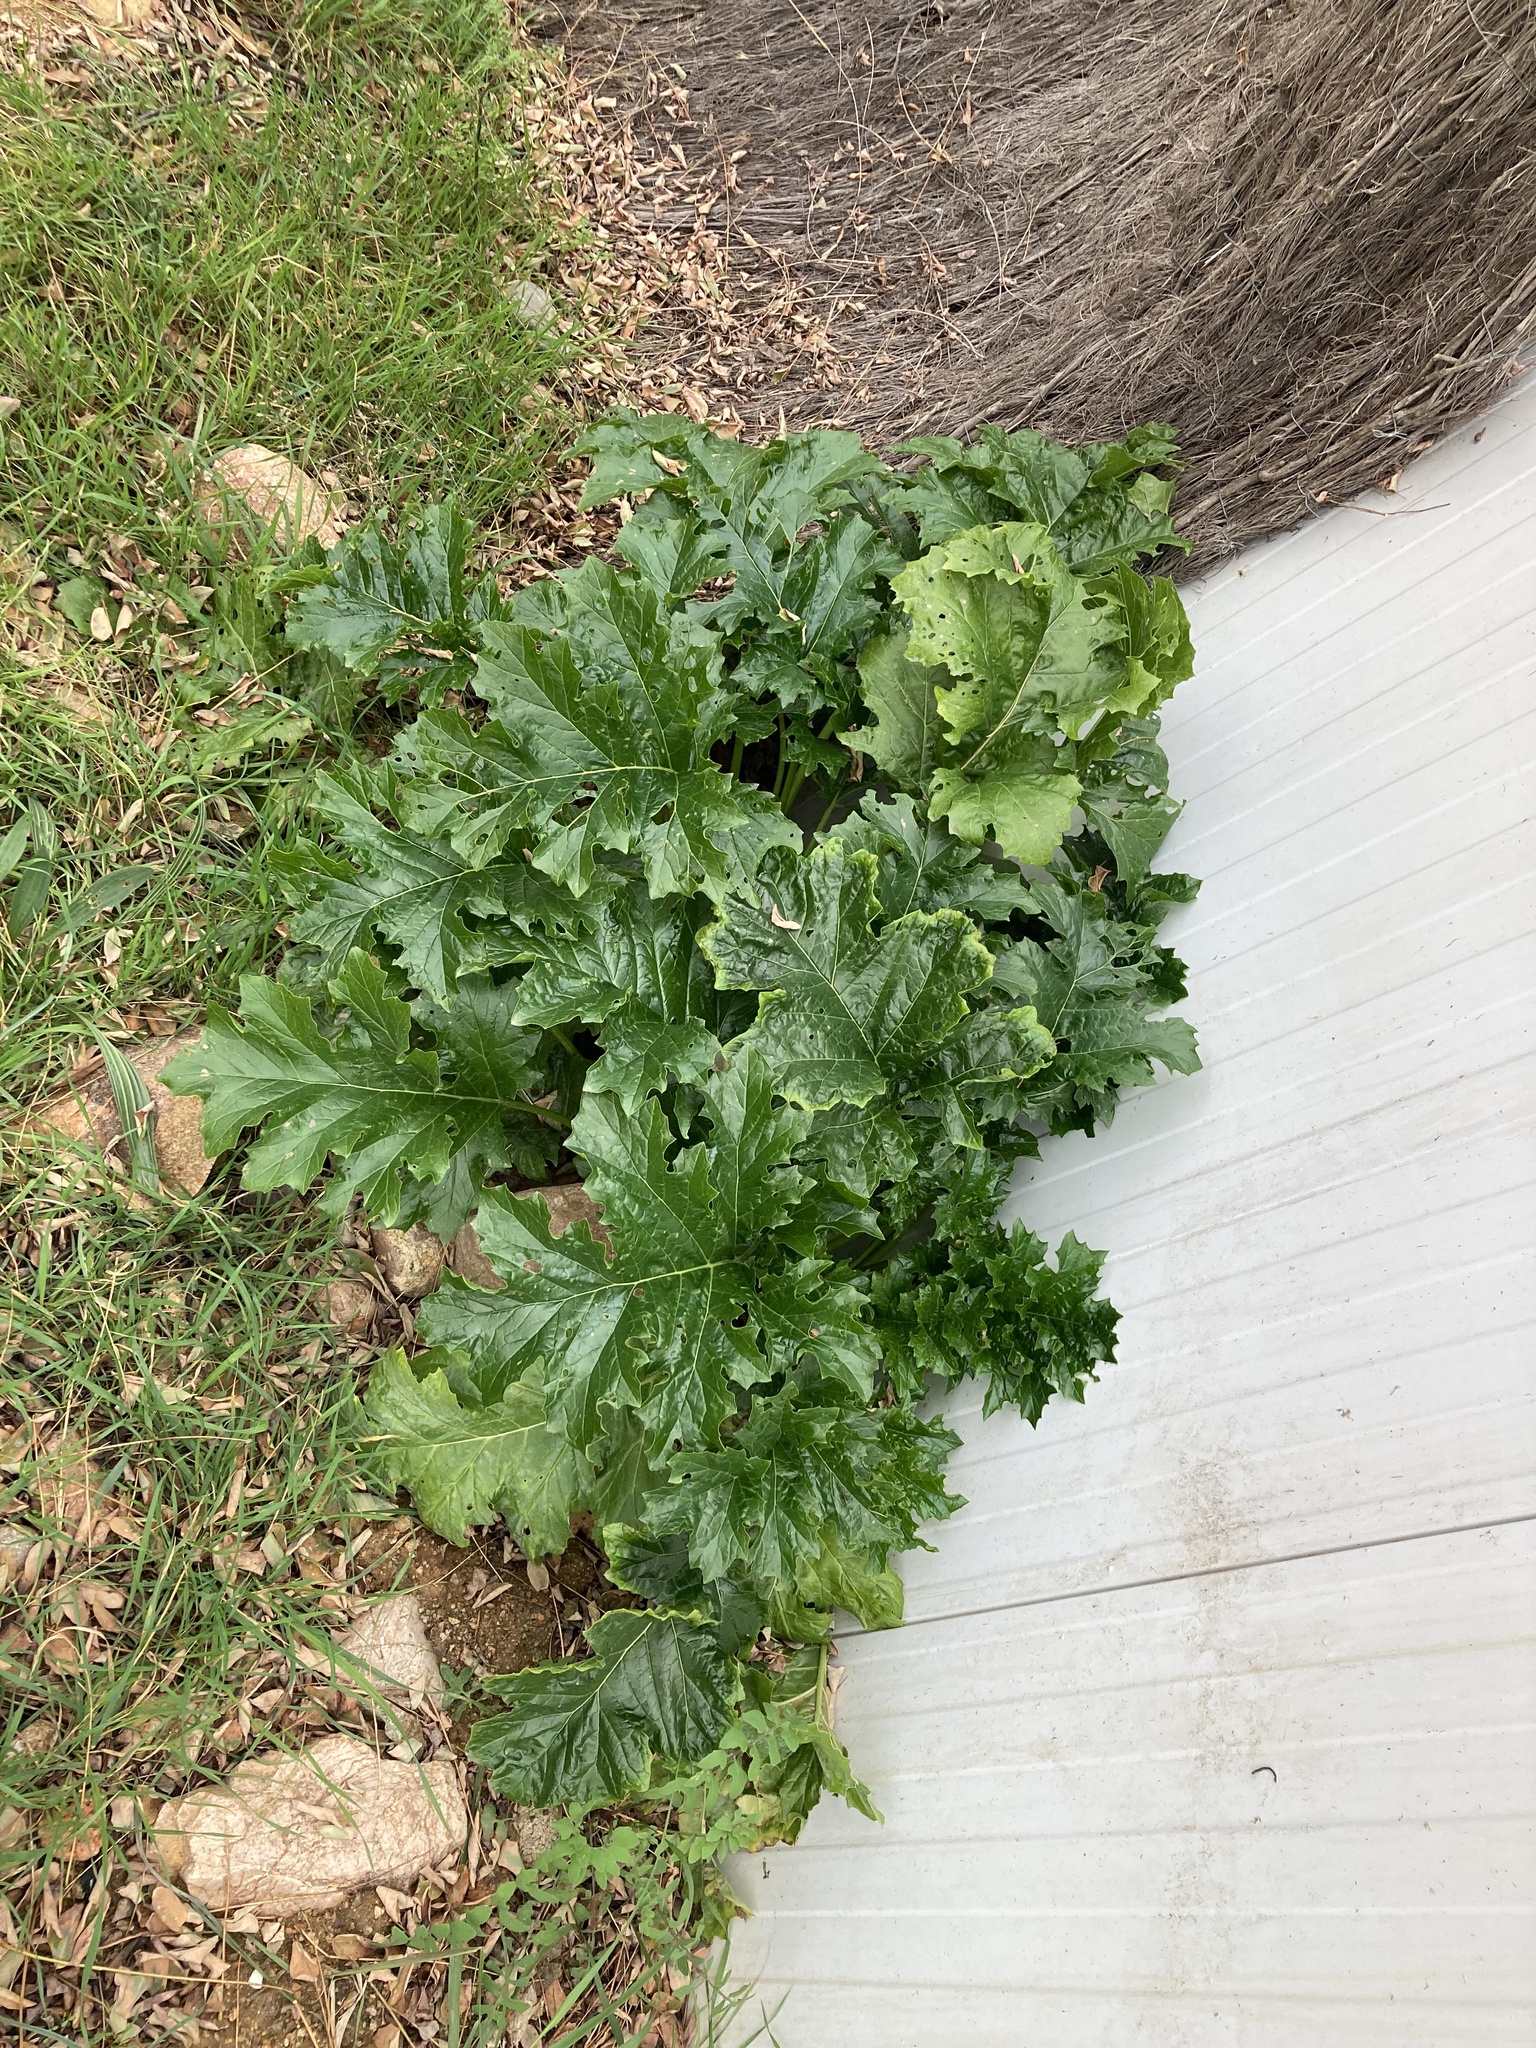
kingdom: Plantae
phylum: Tracheophyta
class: Magnoliopsida
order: Lamiales
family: Acanthaceae
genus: Acanthus
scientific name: Acanthus mollis
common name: Bear's-breech
